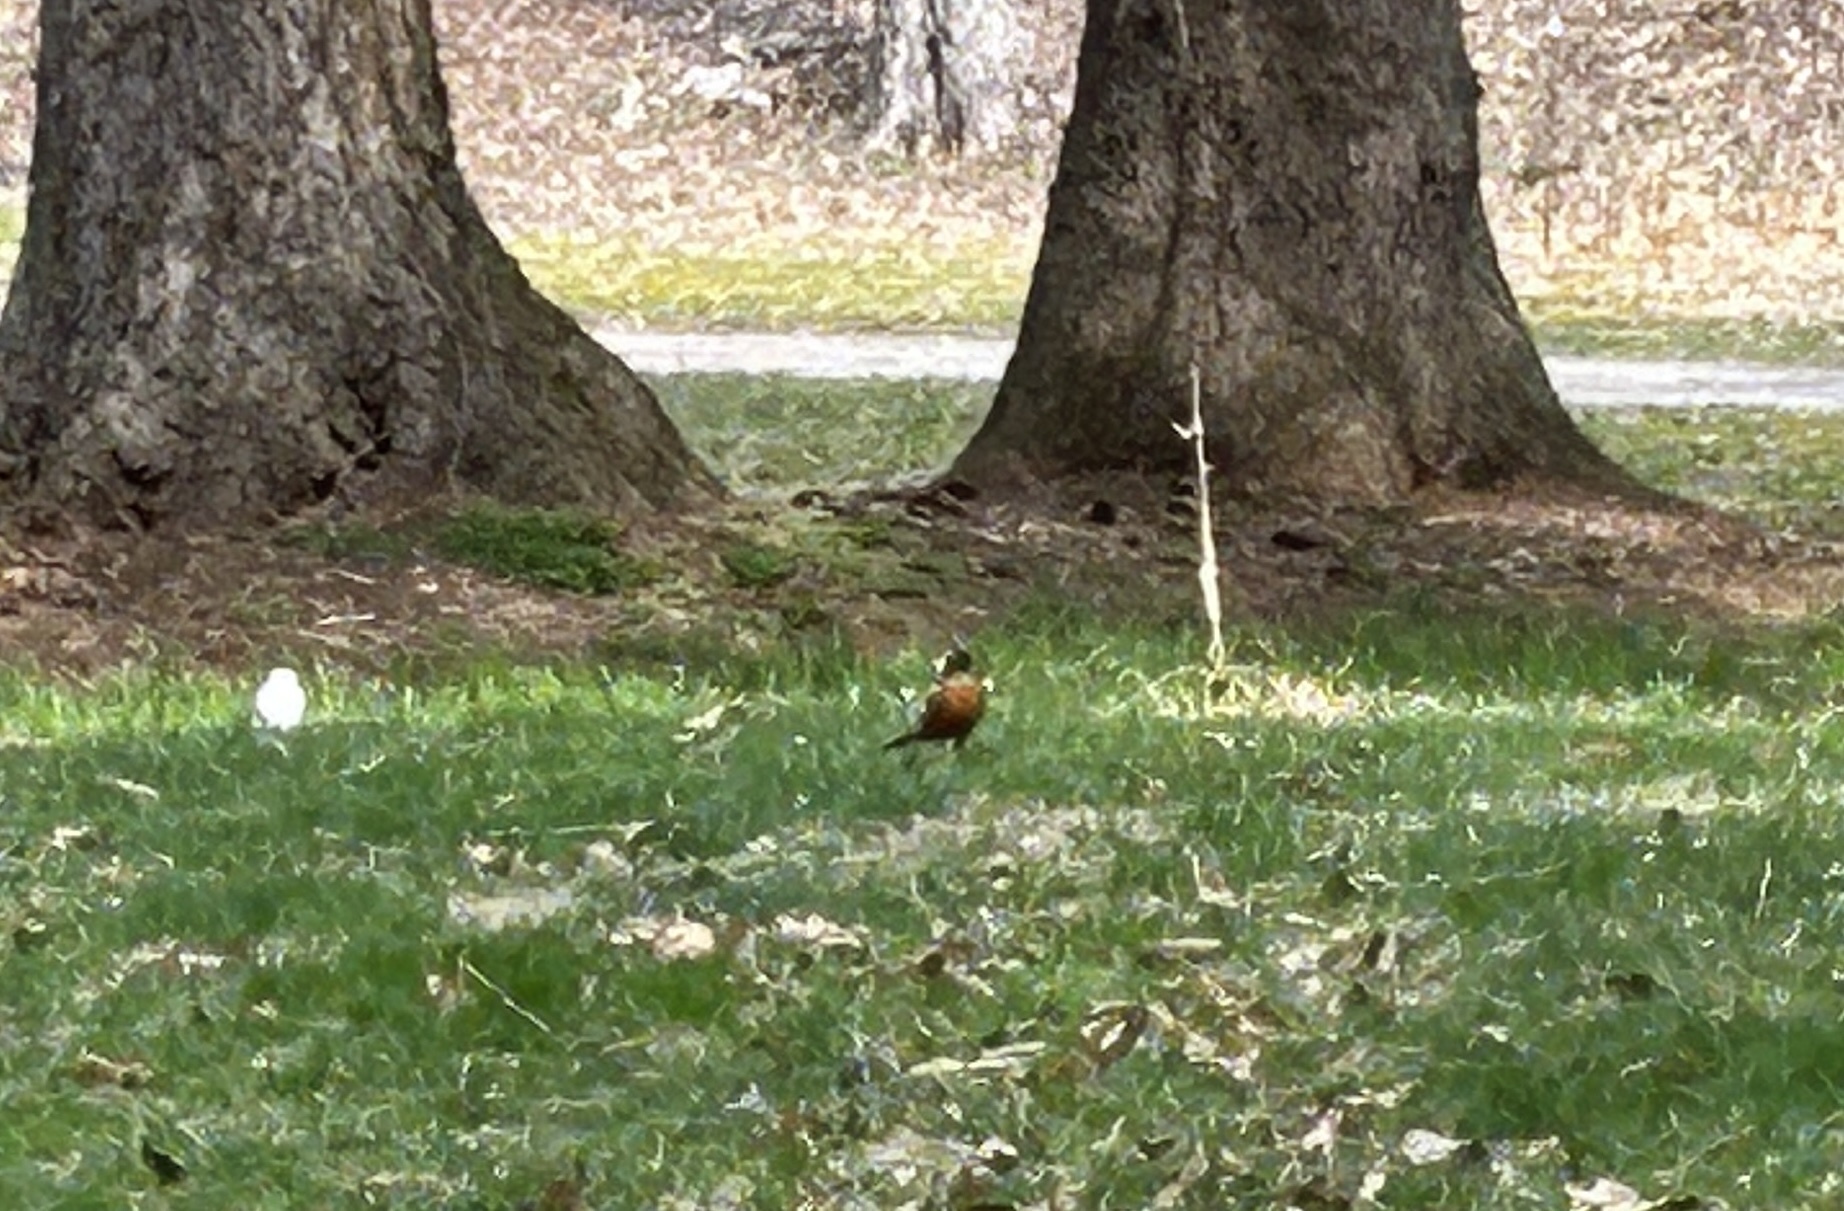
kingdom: Animalia
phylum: Chordata
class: Aves
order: Passeriformes
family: Turdidae
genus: Turdus
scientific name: Turdus migratorius
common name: American robin
